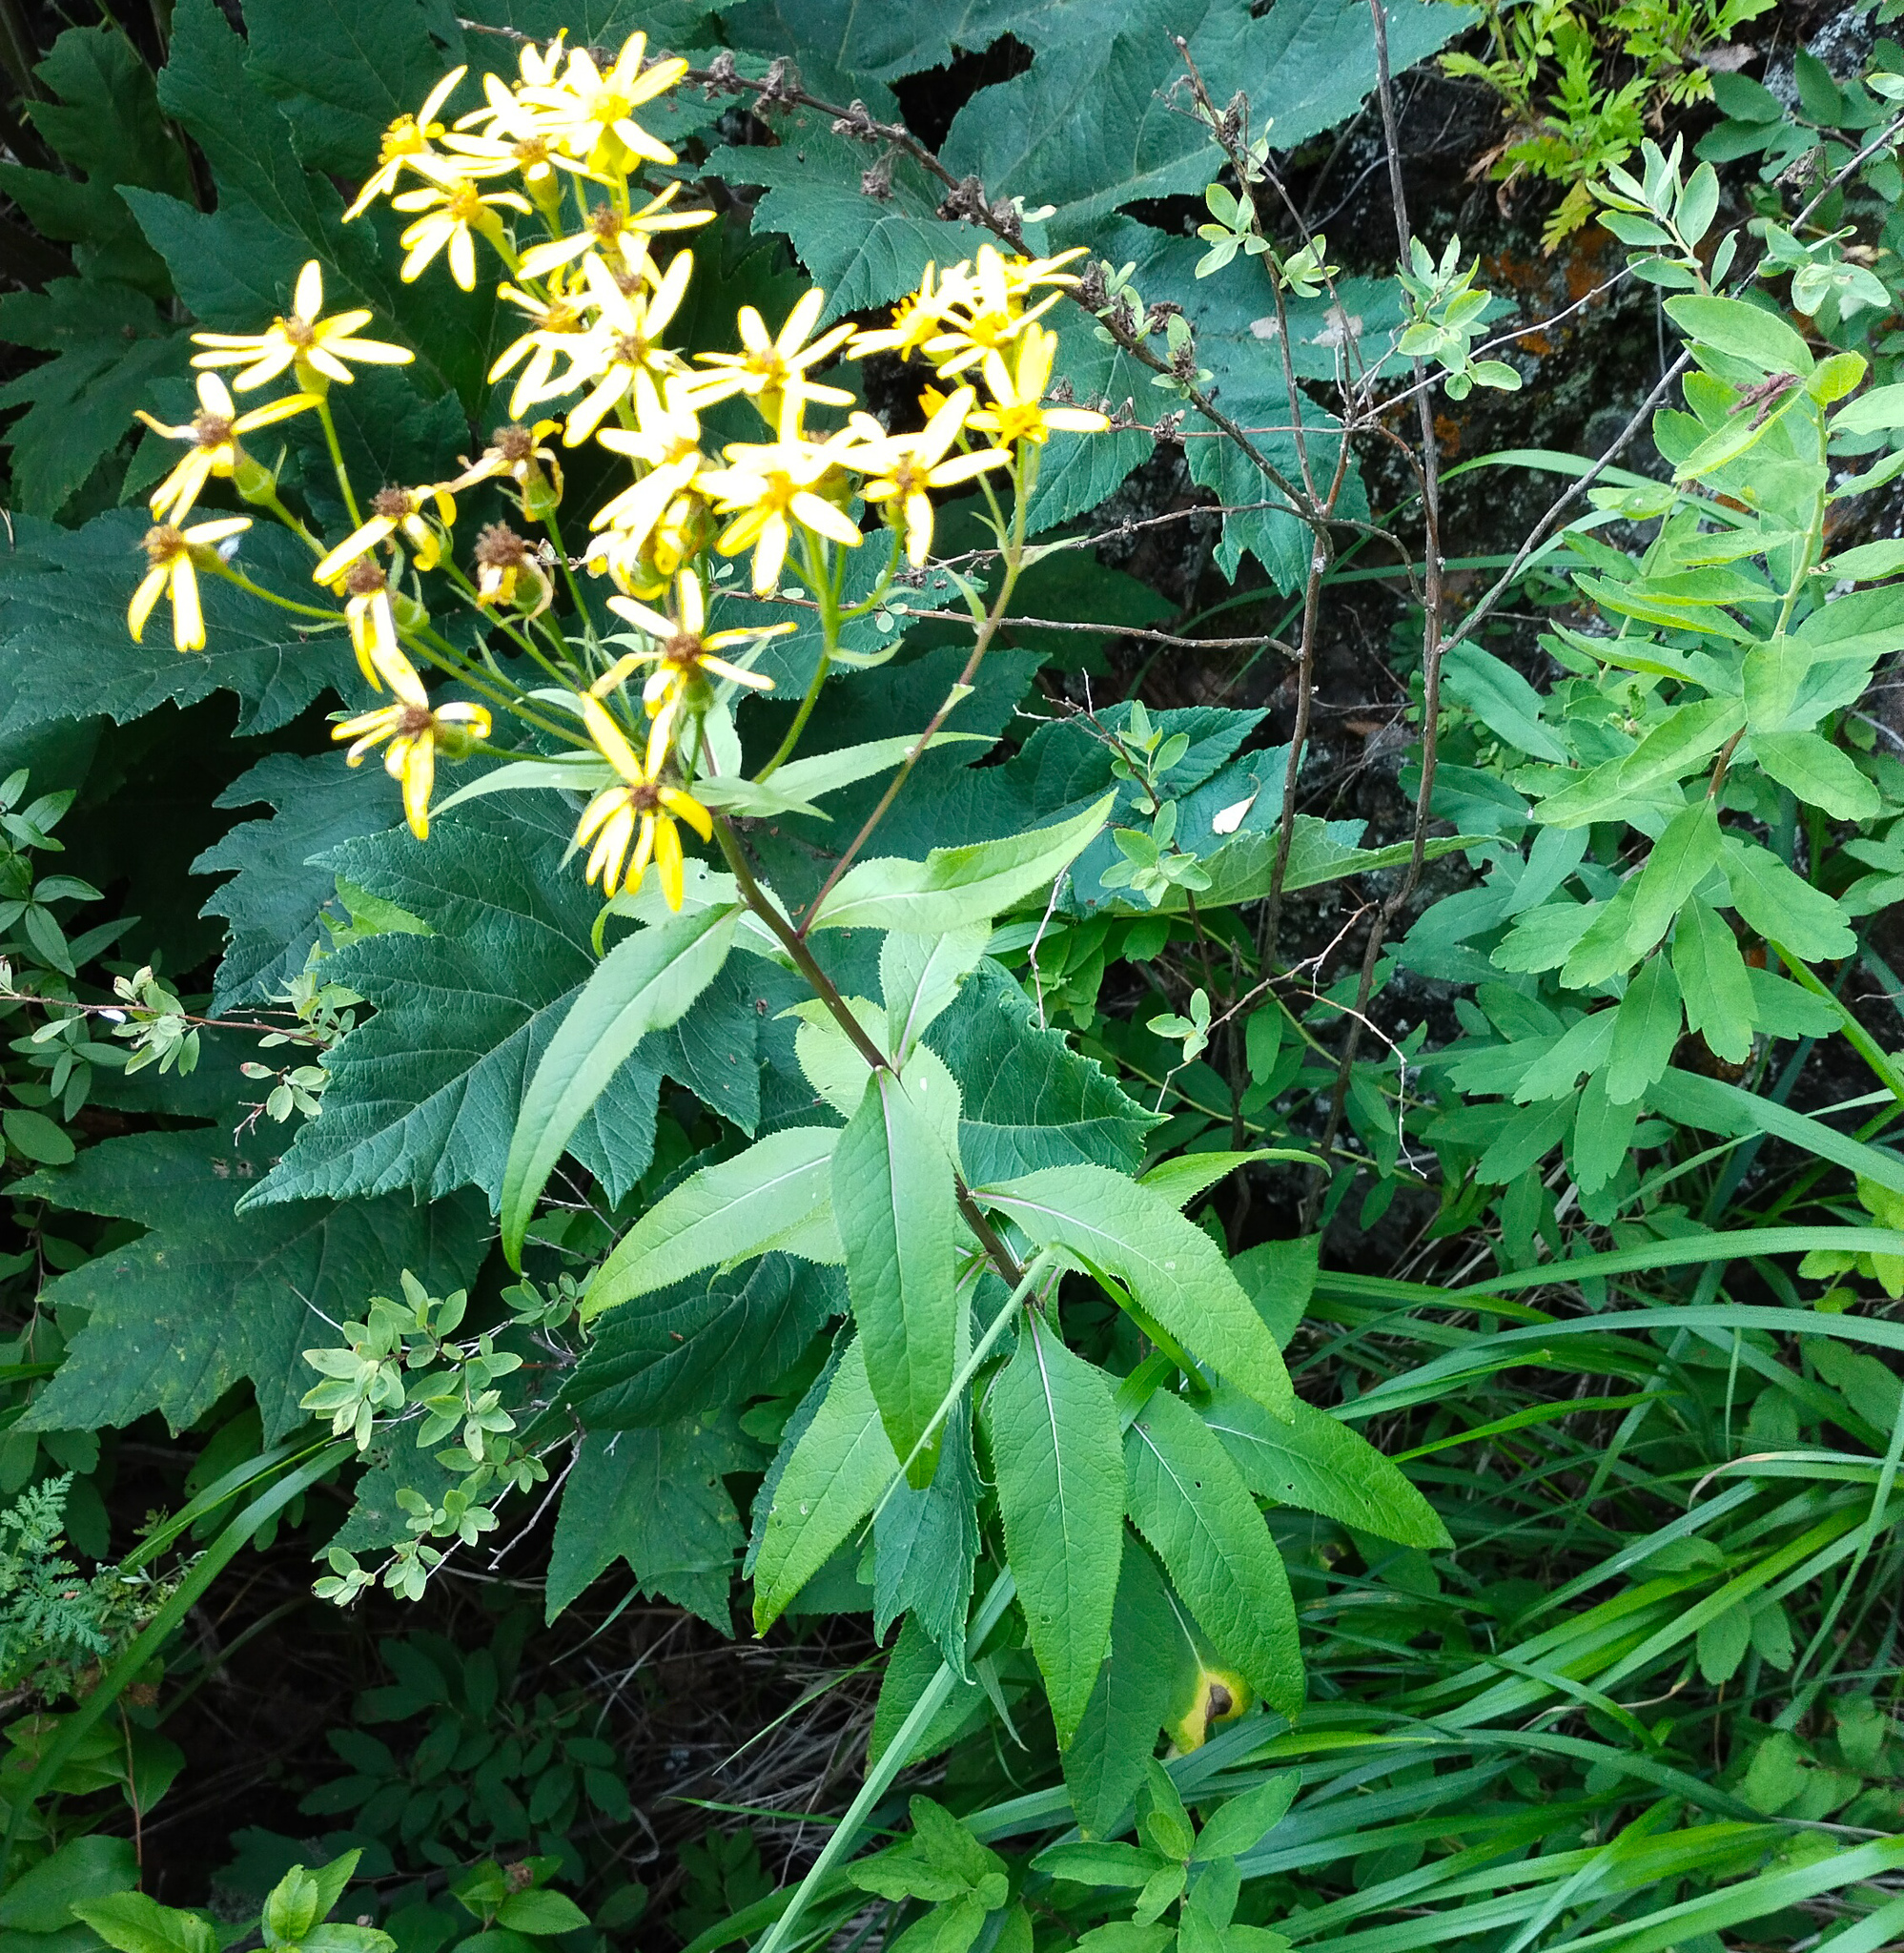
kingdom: Plantae
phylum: Tracheophyta
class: Magnoliopsida
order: Asterales
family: Asteraceae
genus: Senecio
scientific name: Senecio nemorensis
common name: Alpine ragwort
